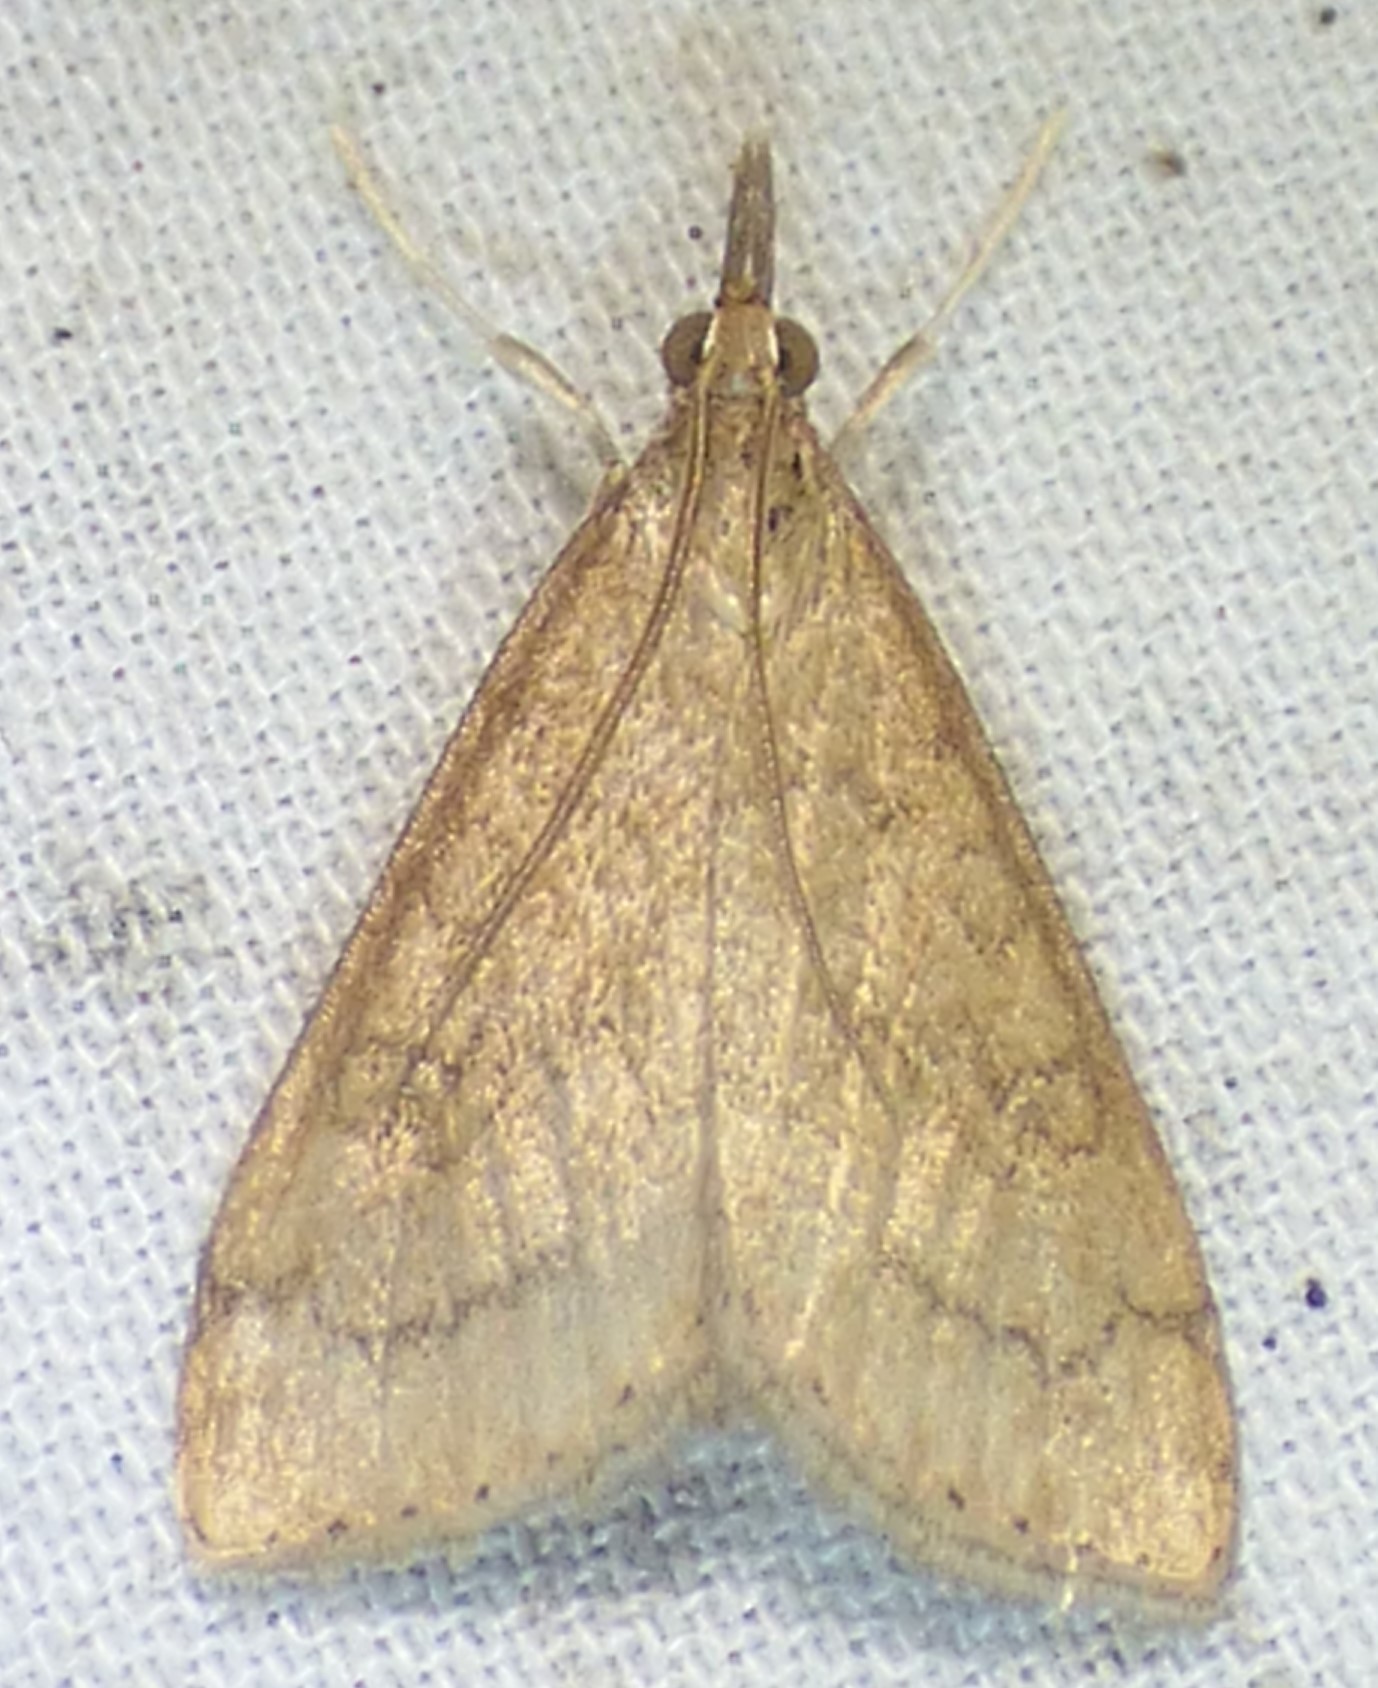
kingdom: Animalia
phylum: Arthropoda
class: Insecta
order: Lepidoptera
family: Crambidae
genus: Udea
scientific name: Udea rubigalis
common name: Celery leaftier moth
